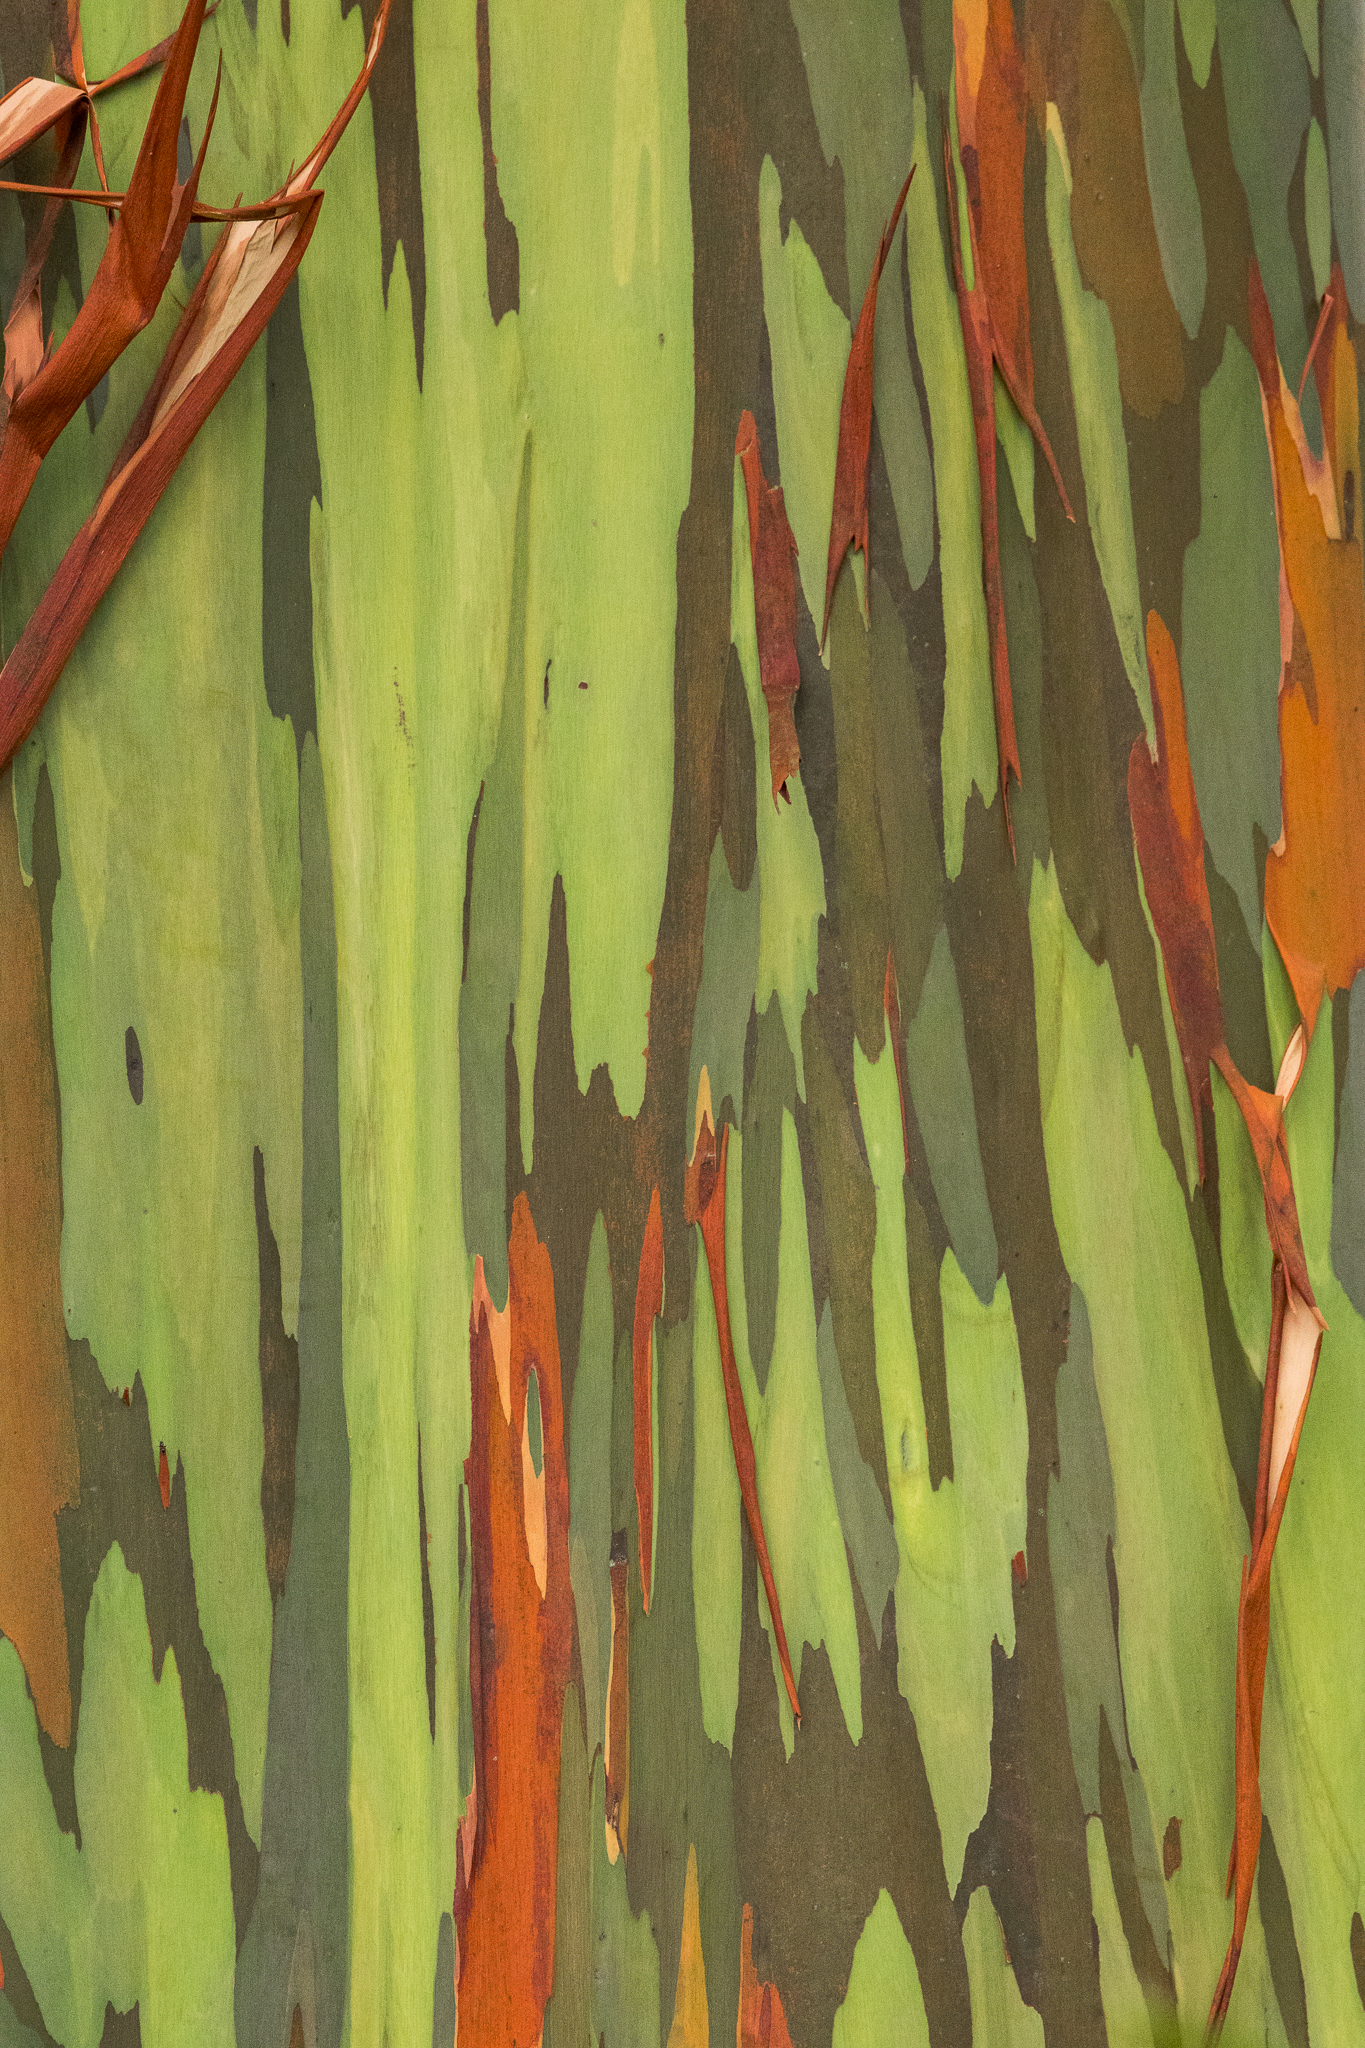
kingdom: Plantae
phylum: Tracheophyta
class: Magnoliopsida
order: Myrtales
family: Myrtaceae
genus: Eucalyptus
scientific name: Eucalyptus deglupta
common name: Mindanao gum
